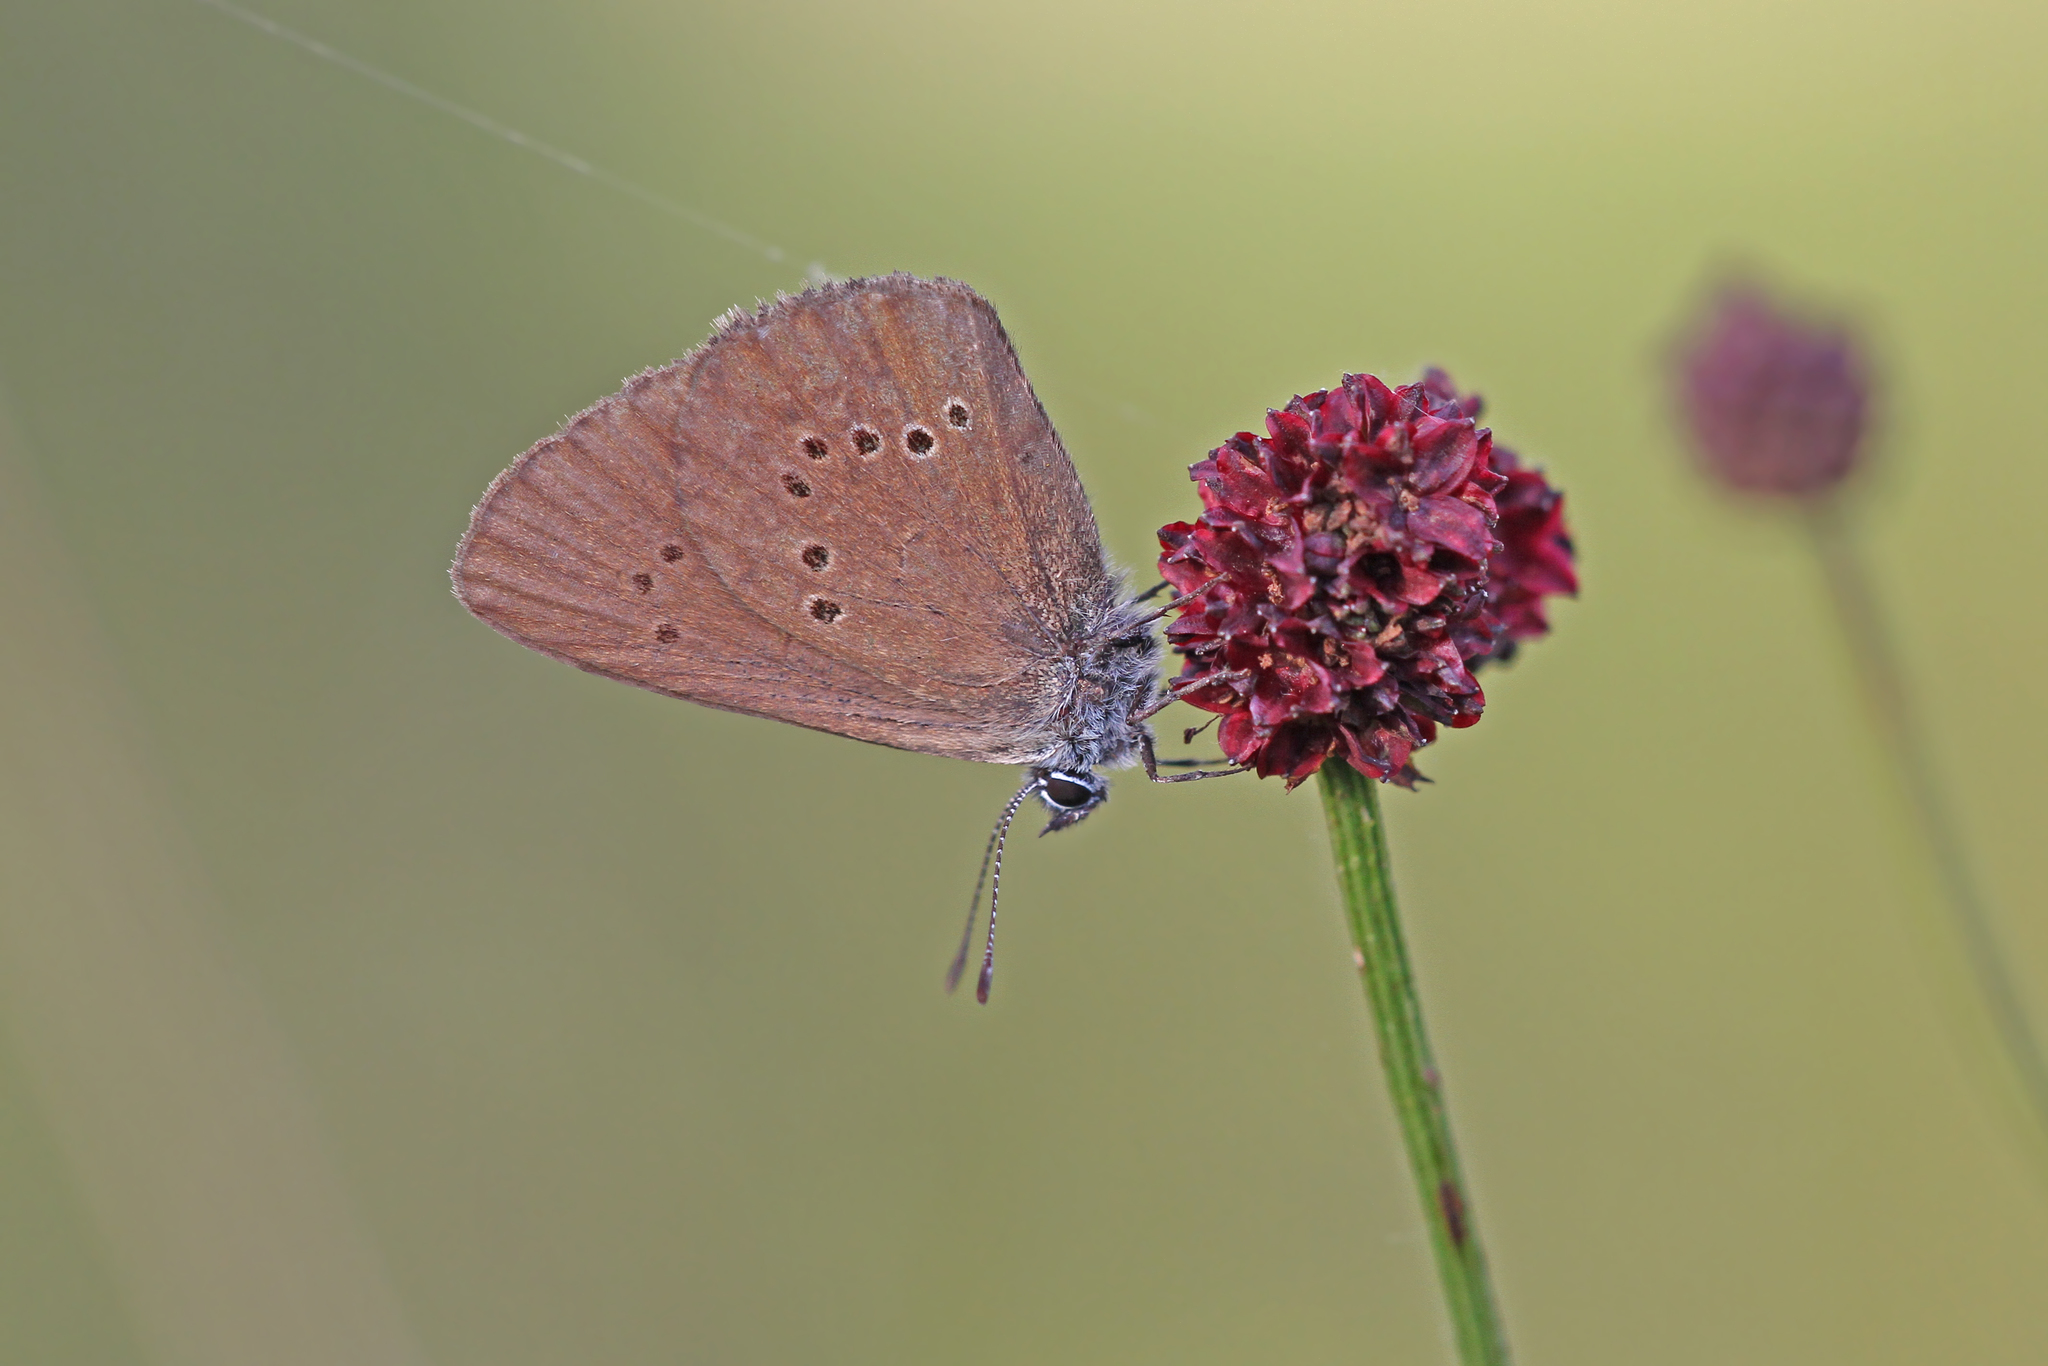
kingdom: Animalia
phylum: Arthropoda
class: Insecta
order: Lepidoptera
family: Lycaenidae
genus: Maculinea
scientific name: Maculinea nausithous
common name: Dusky large blue
